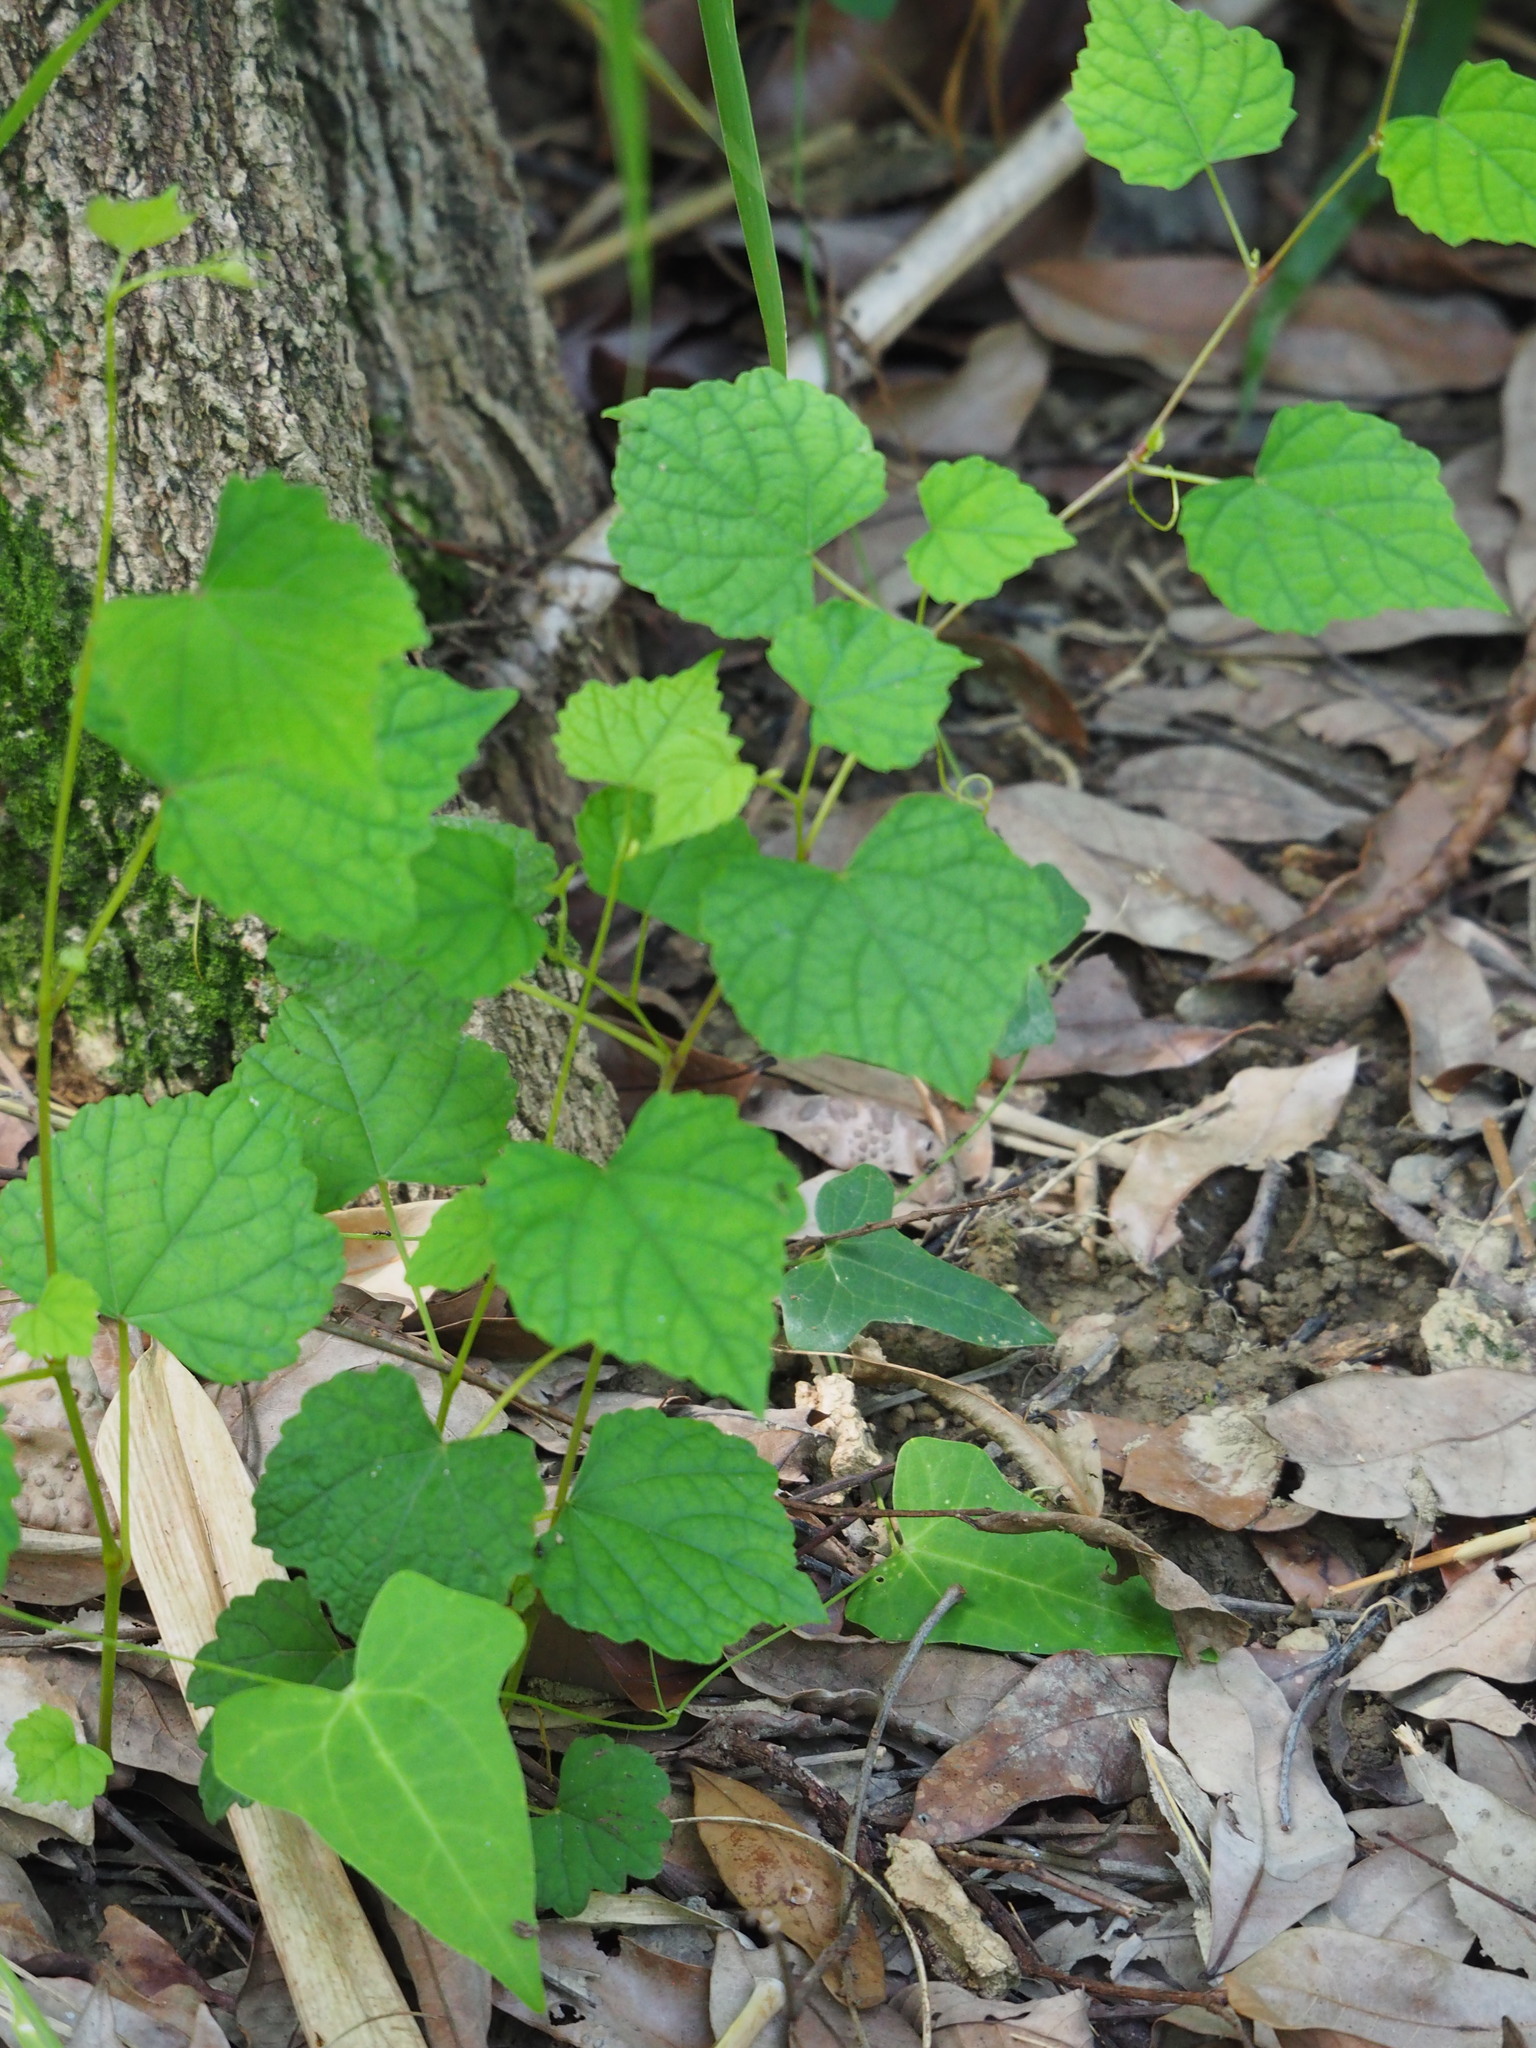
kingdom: Plantae
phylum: Tracheophyta
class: Magnoliopsida
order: Vitales
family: Vitaceae
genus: Ampelopsis
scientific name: Ampelopsis glandulosa
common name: Amur peppervine
